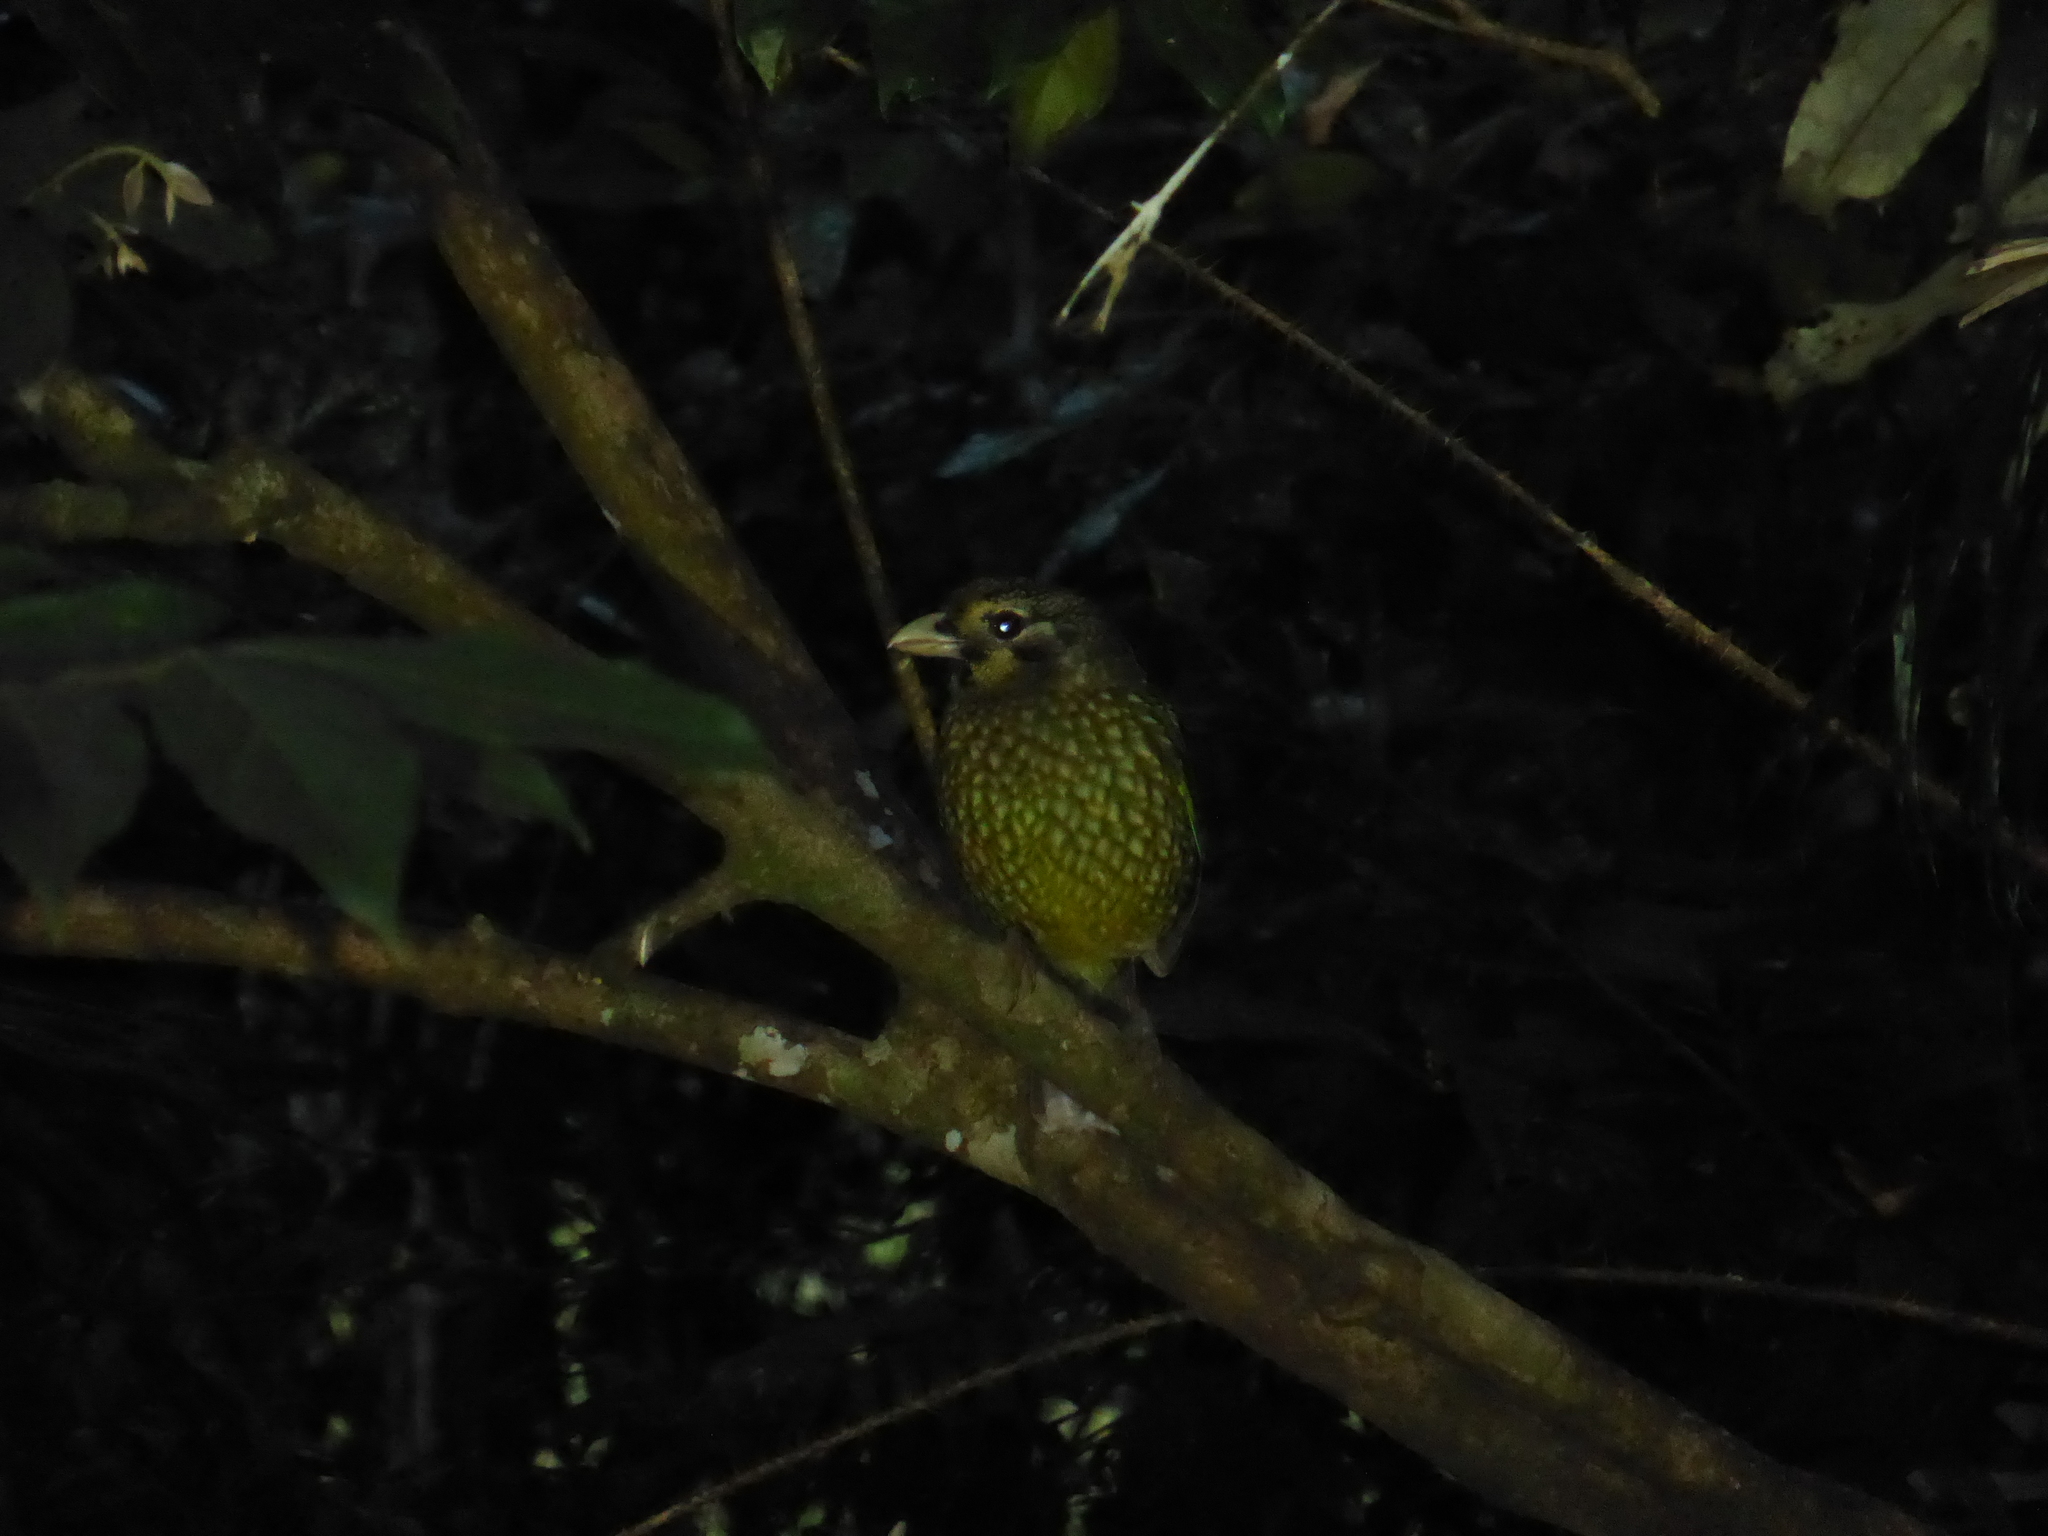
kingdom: Animalia
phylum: Chordata
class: Aves
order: Passeriformes
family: Ptilonorhynchidae
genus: Ailuroedus
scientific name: Ailuroedus maculosus
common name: Spotted catbird
